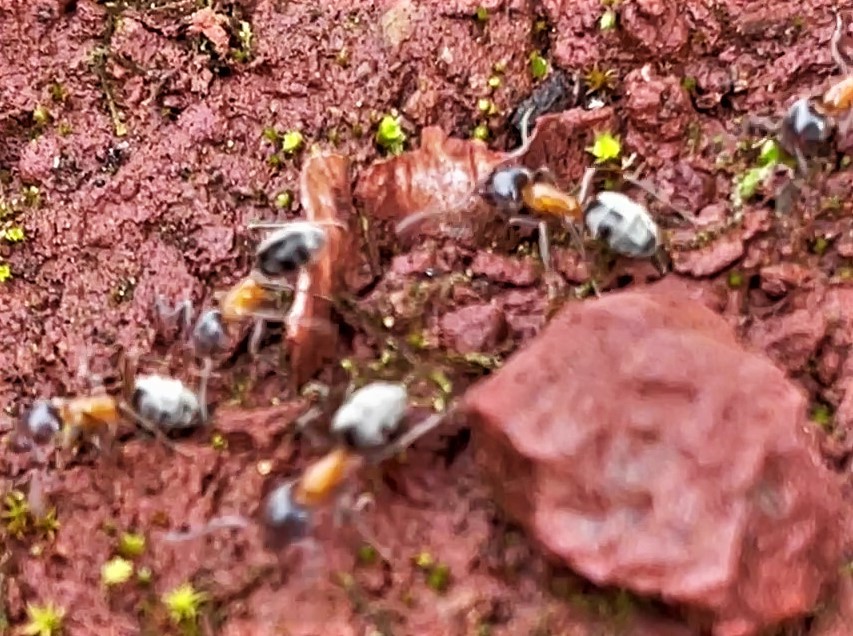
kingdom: Animalia
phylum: Arthropoda
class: Insecta
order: Hymenoptera
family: Formicidae
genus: Liometopum
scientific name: Liometopum occidentale
